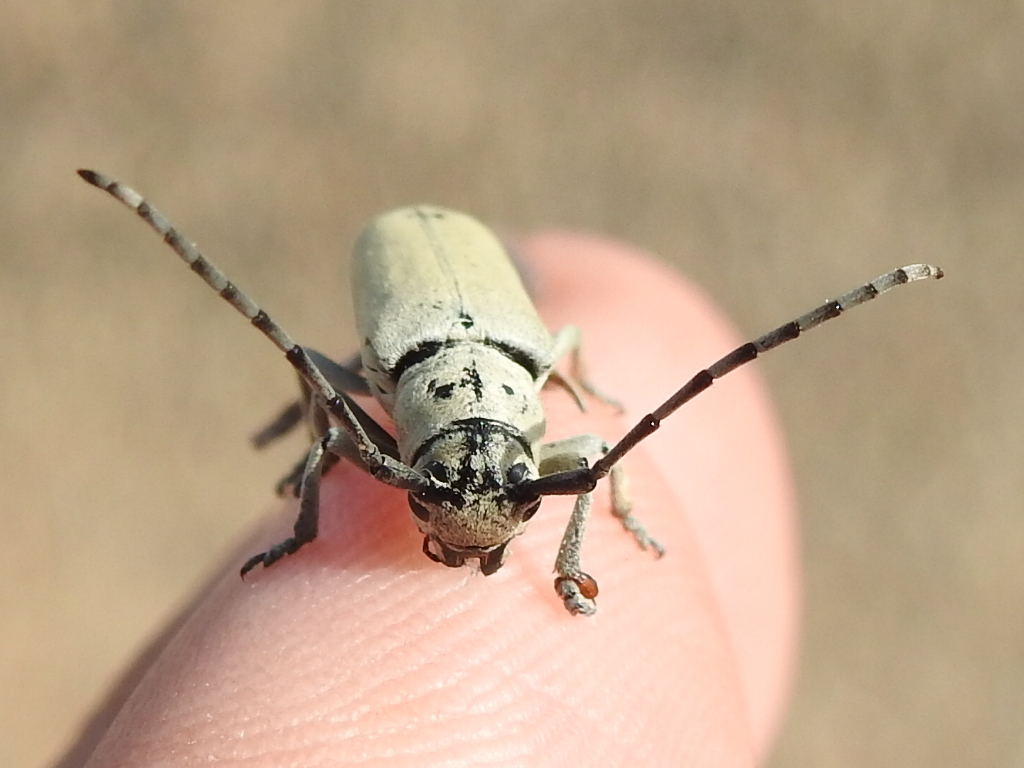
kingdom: Animalia
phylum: Arthropoda
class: Insecta
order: Coleoptera
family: Cerambycidae
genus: Mecas
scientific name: Mecas cana
